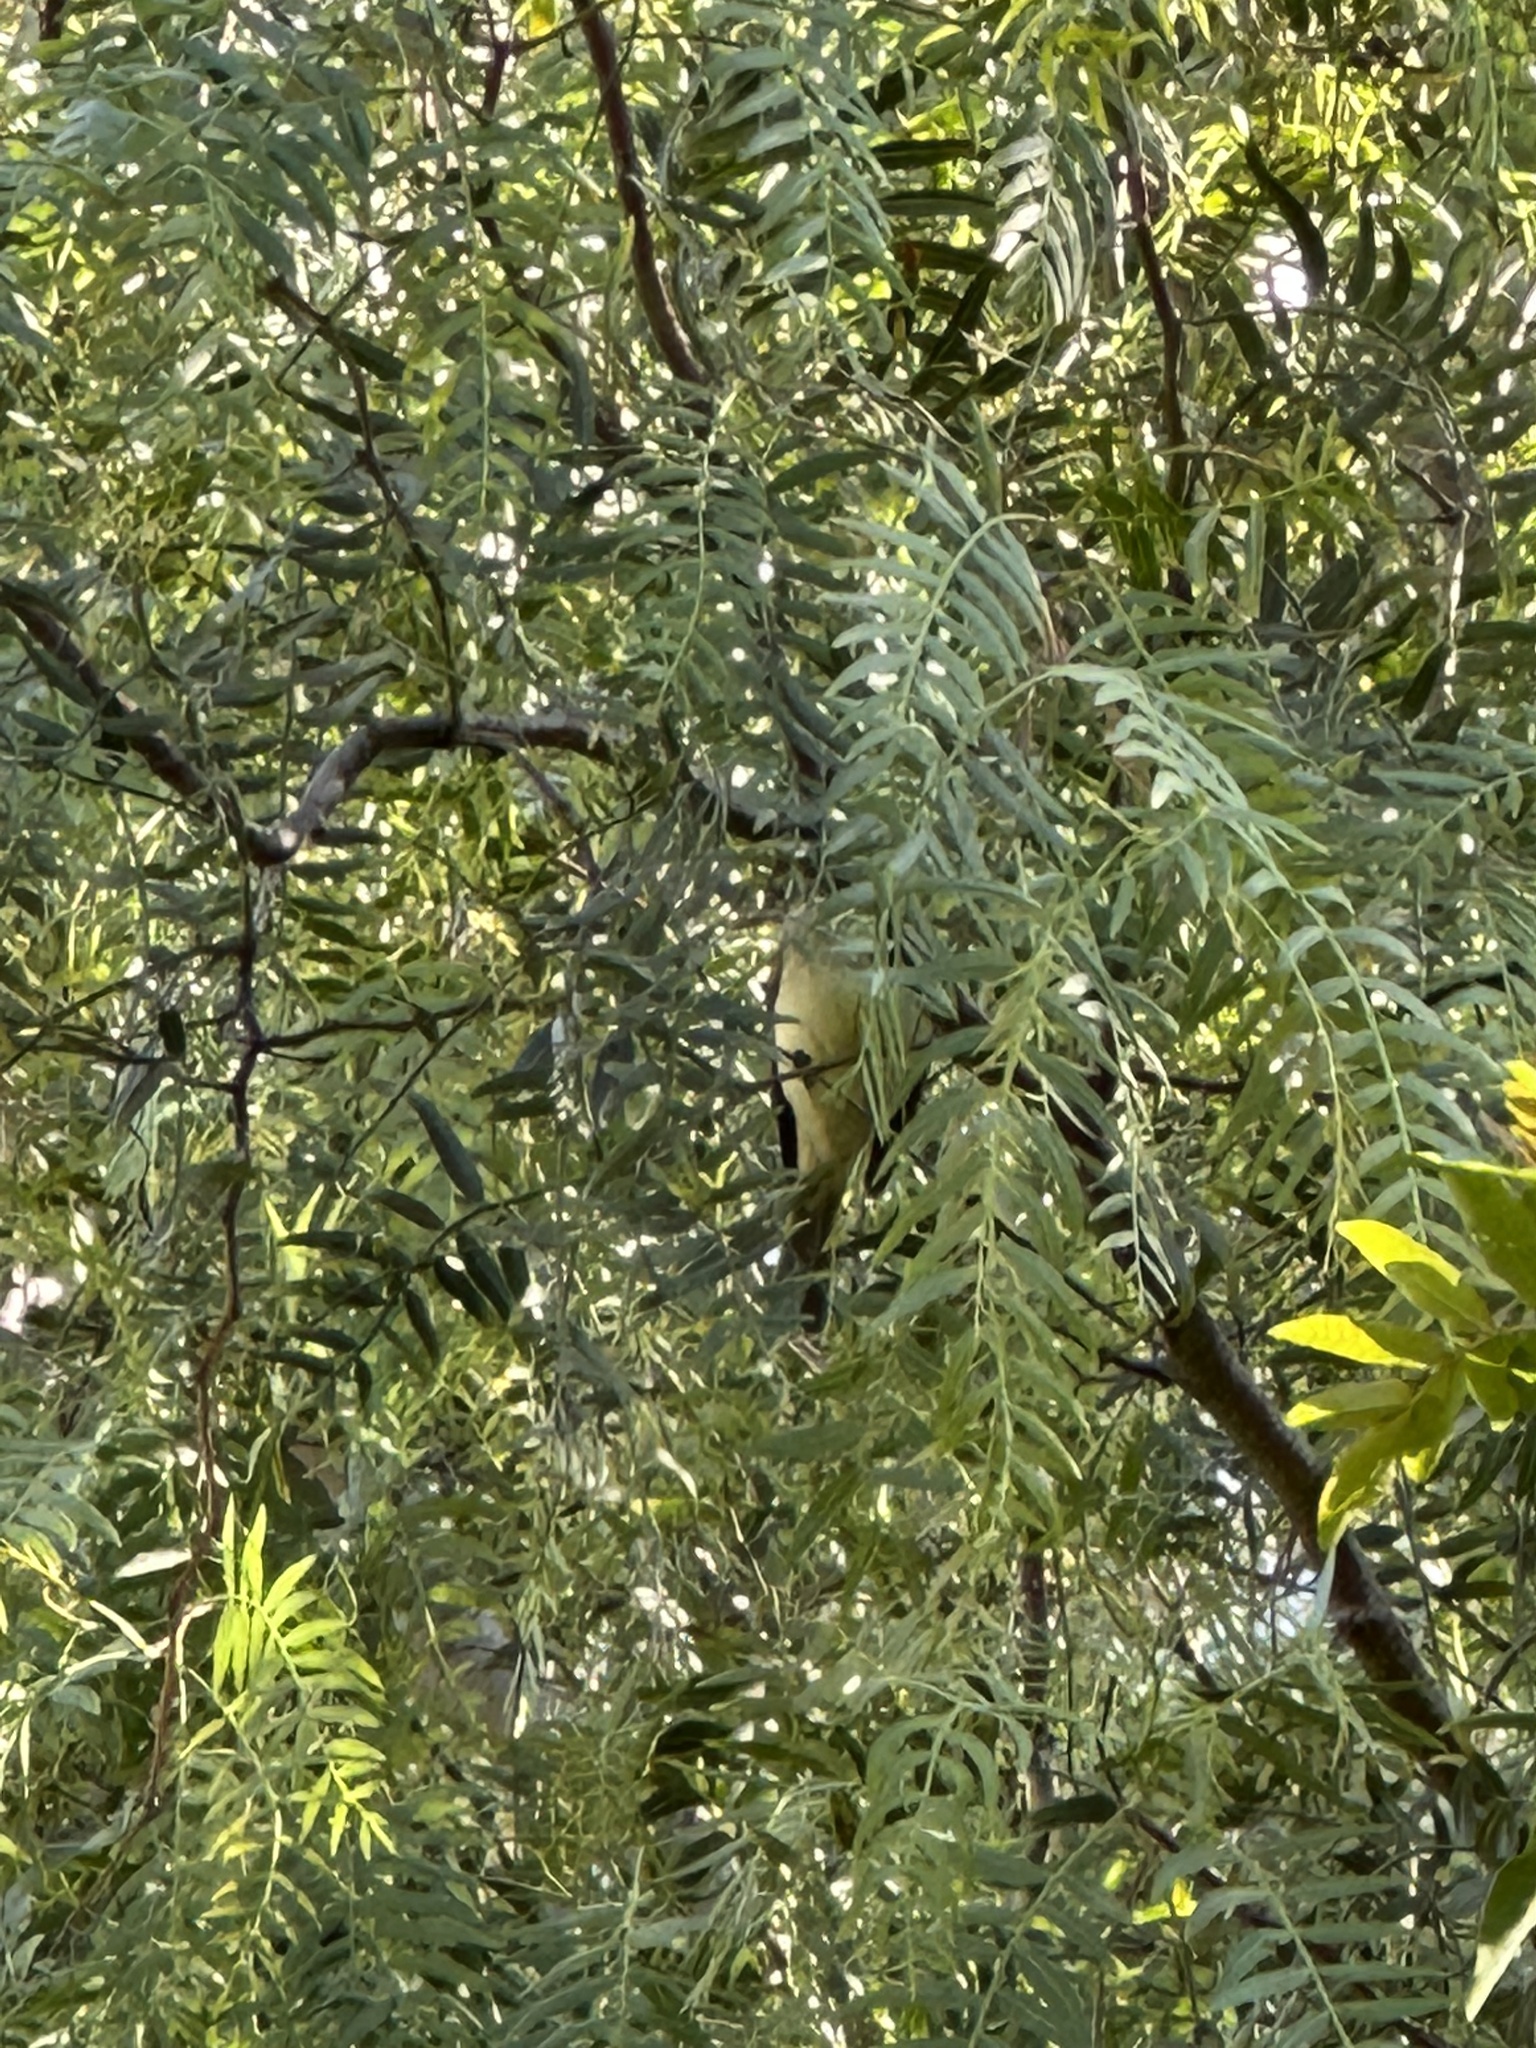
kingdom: Animalia
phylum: Chordata
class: Aves
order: Passeriformes
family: Tyrannidae
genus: Empidonax
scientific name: Empidonax difficilis
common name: Pacific-slope flycatcher
